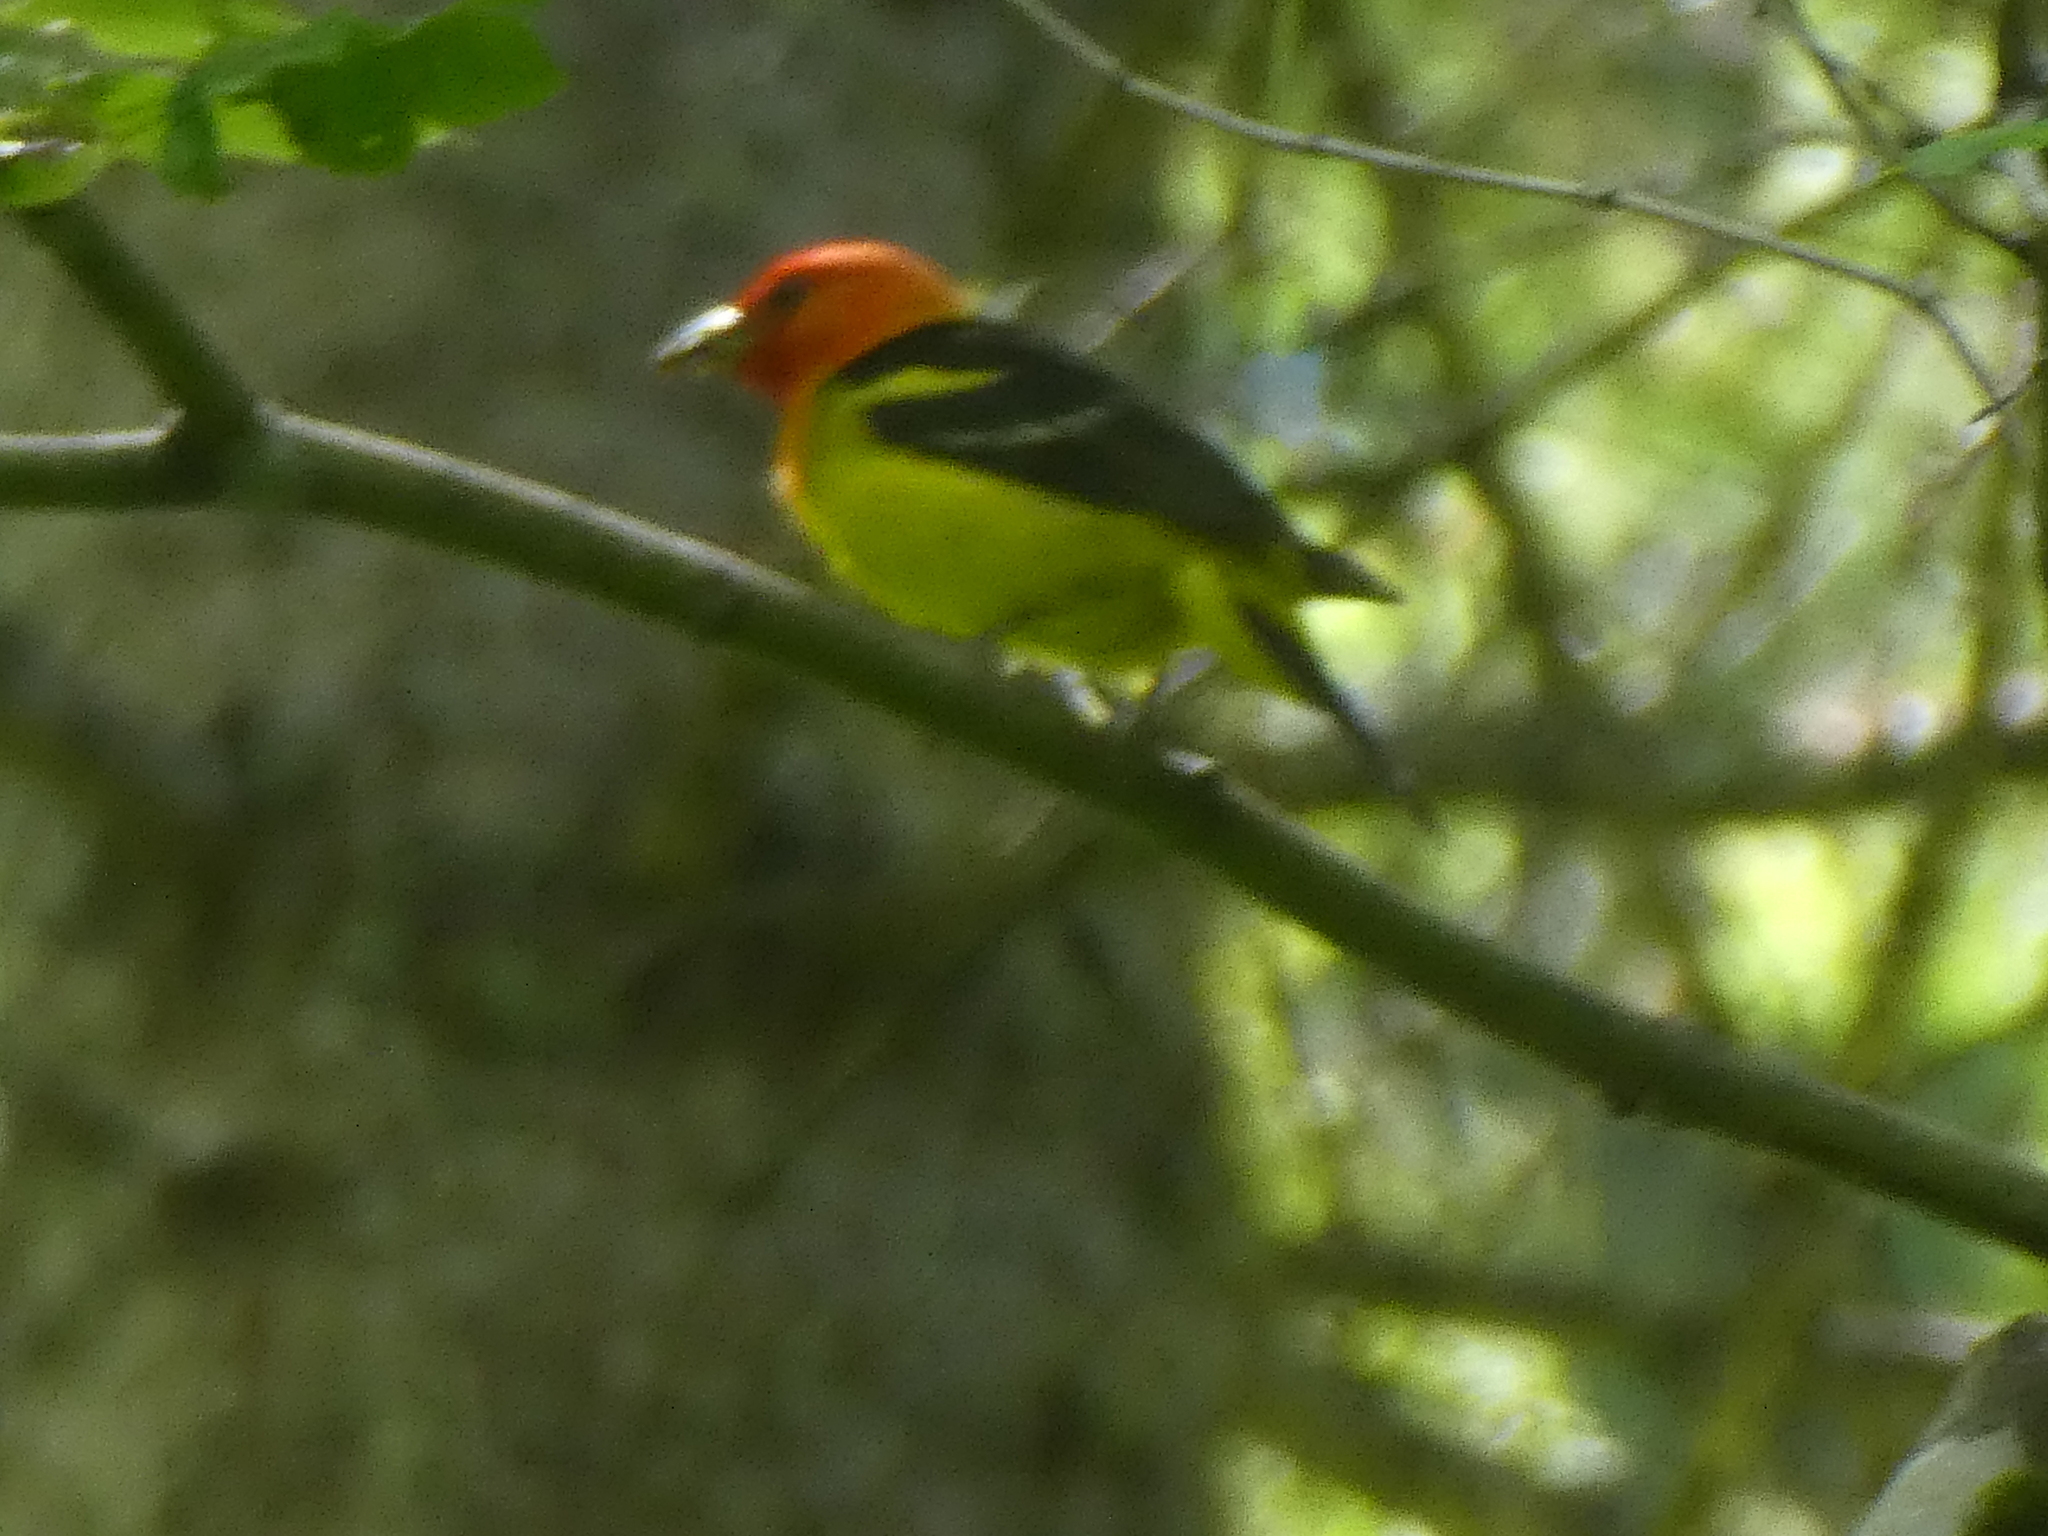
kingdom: Animalia
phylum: Chordata
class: Aves
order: Passeriformes
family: Cardinalidae
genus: Piranga
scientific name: Piranga ludoviciana
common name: Western tanager
